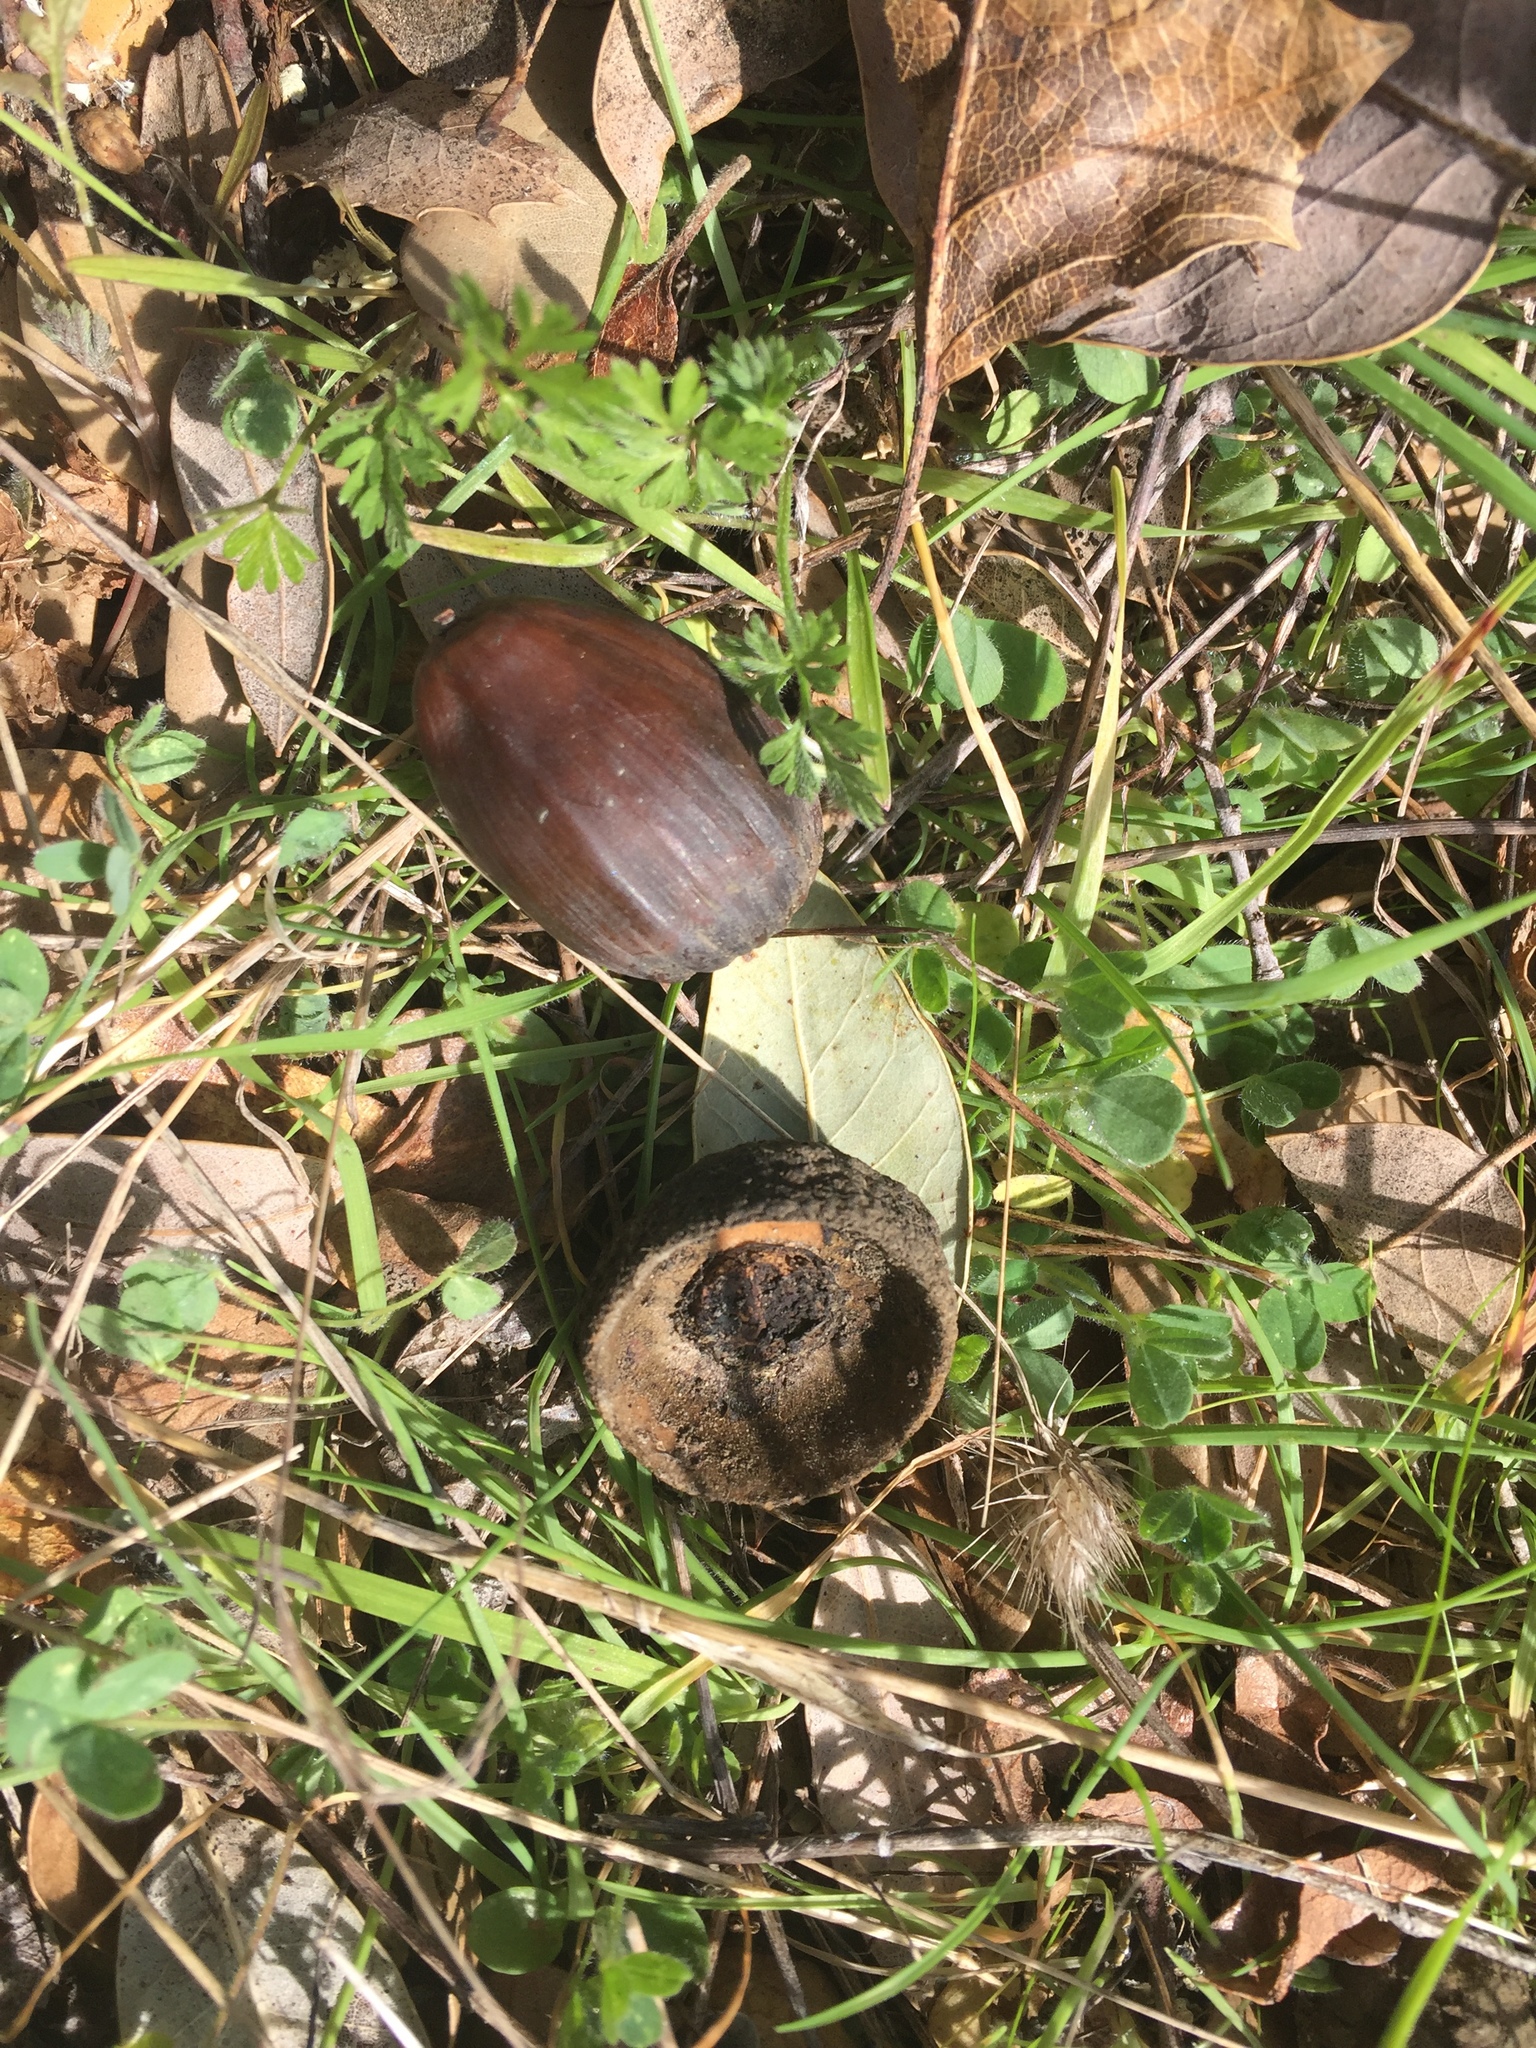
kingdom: Plantae
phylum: Tracheophyta
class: Magnoliopsida
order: Fagales
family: Fagaceae
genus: Quercus
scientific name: Quercus chrysolepis
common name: Canyon live oak
